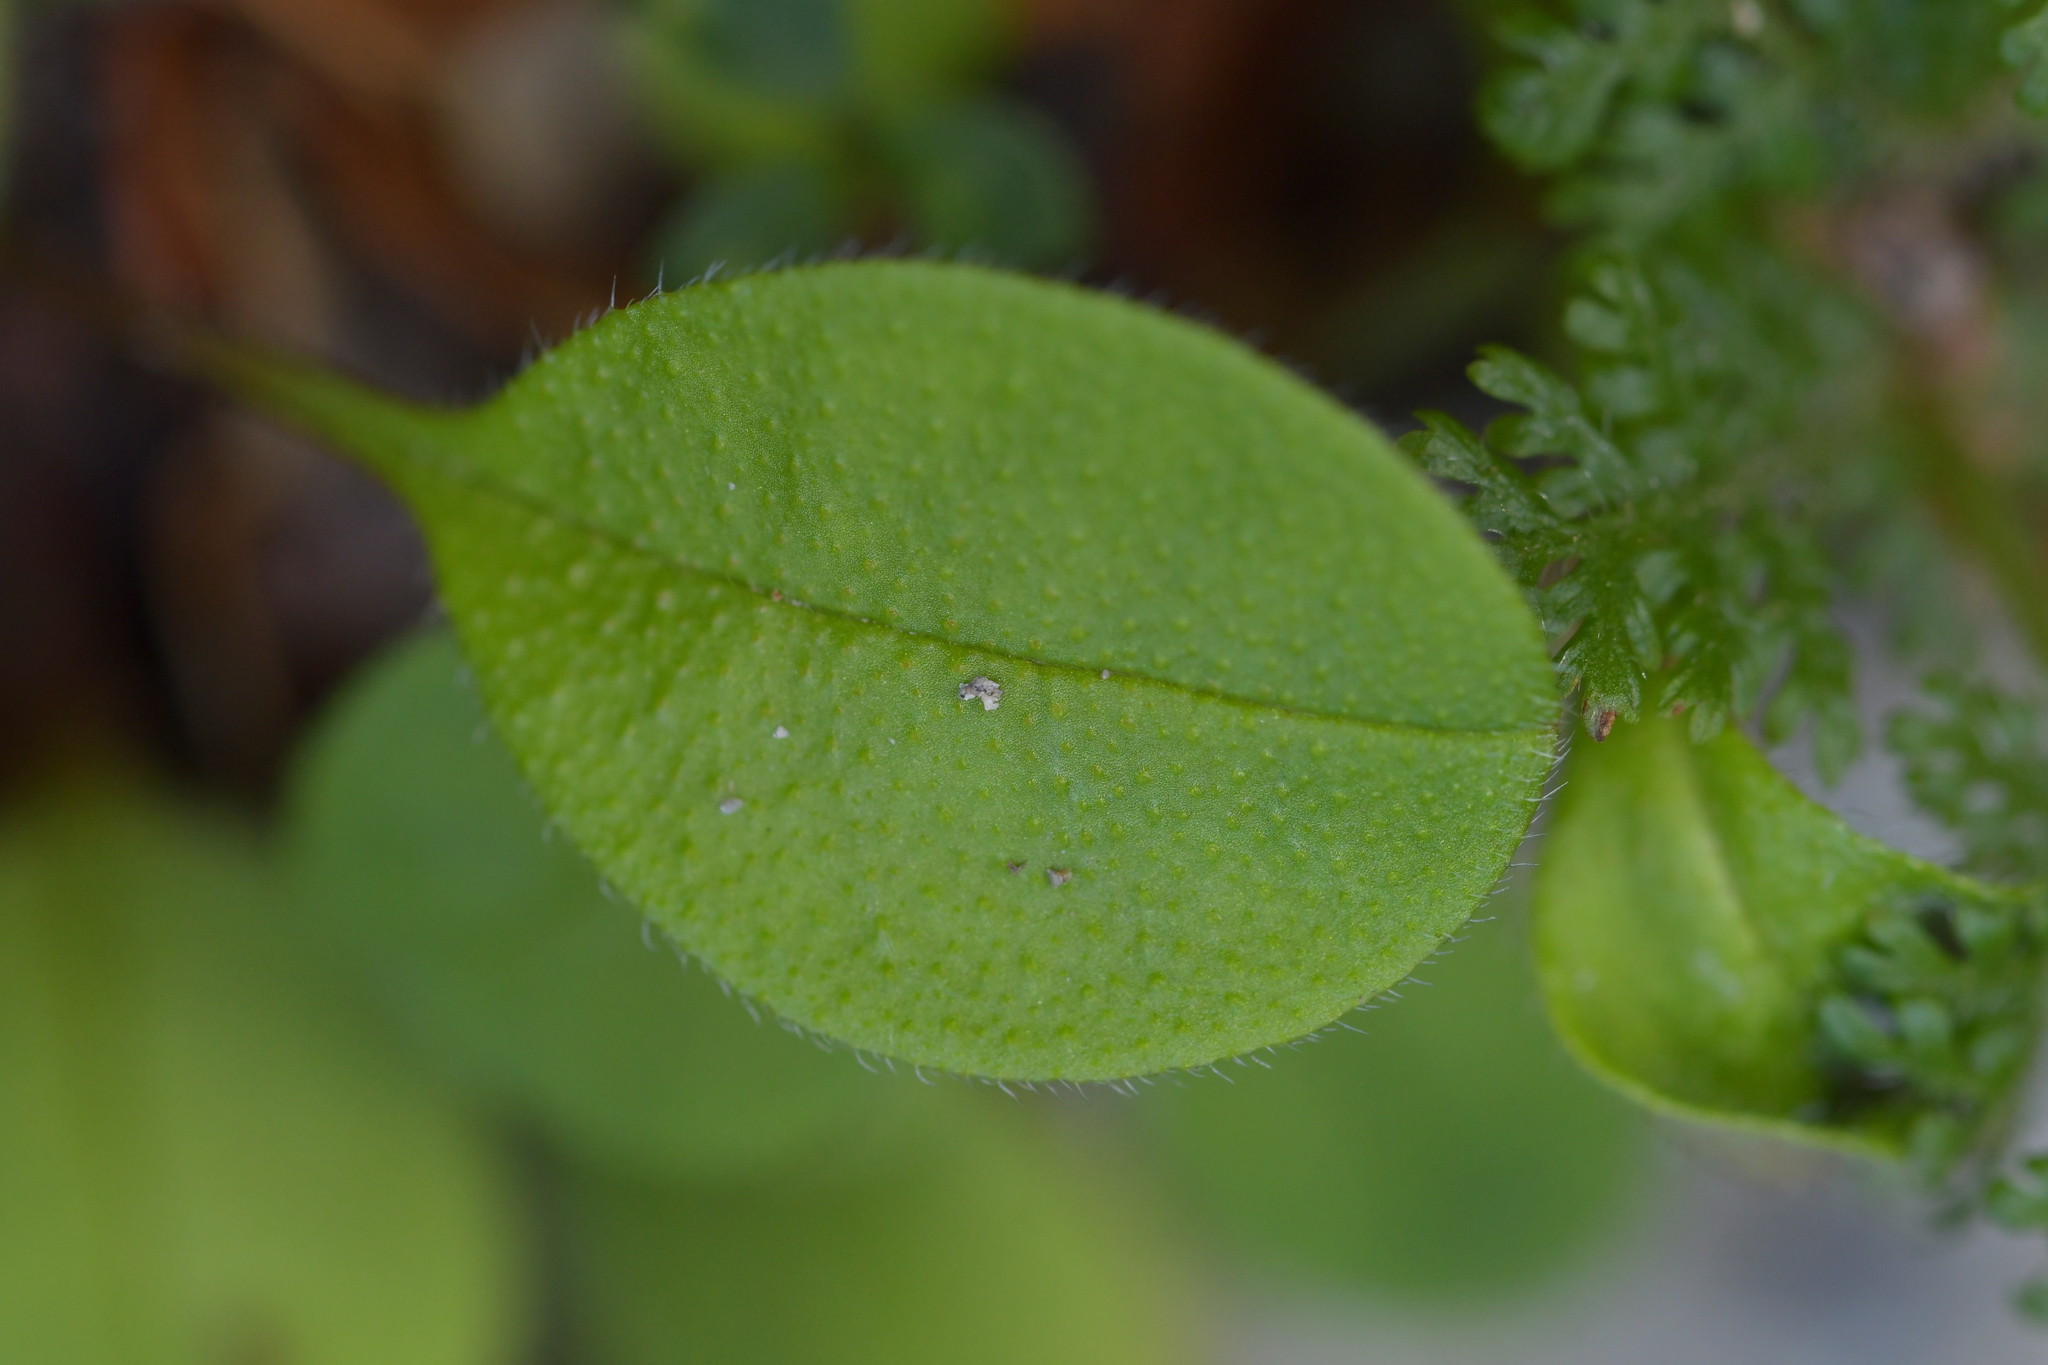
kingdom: Plantae
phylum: Tracheophyta
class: Magnoliopsida
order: Boraginales
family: Boraginaceae
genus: Myosotis
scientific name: Myosotis forsteri
